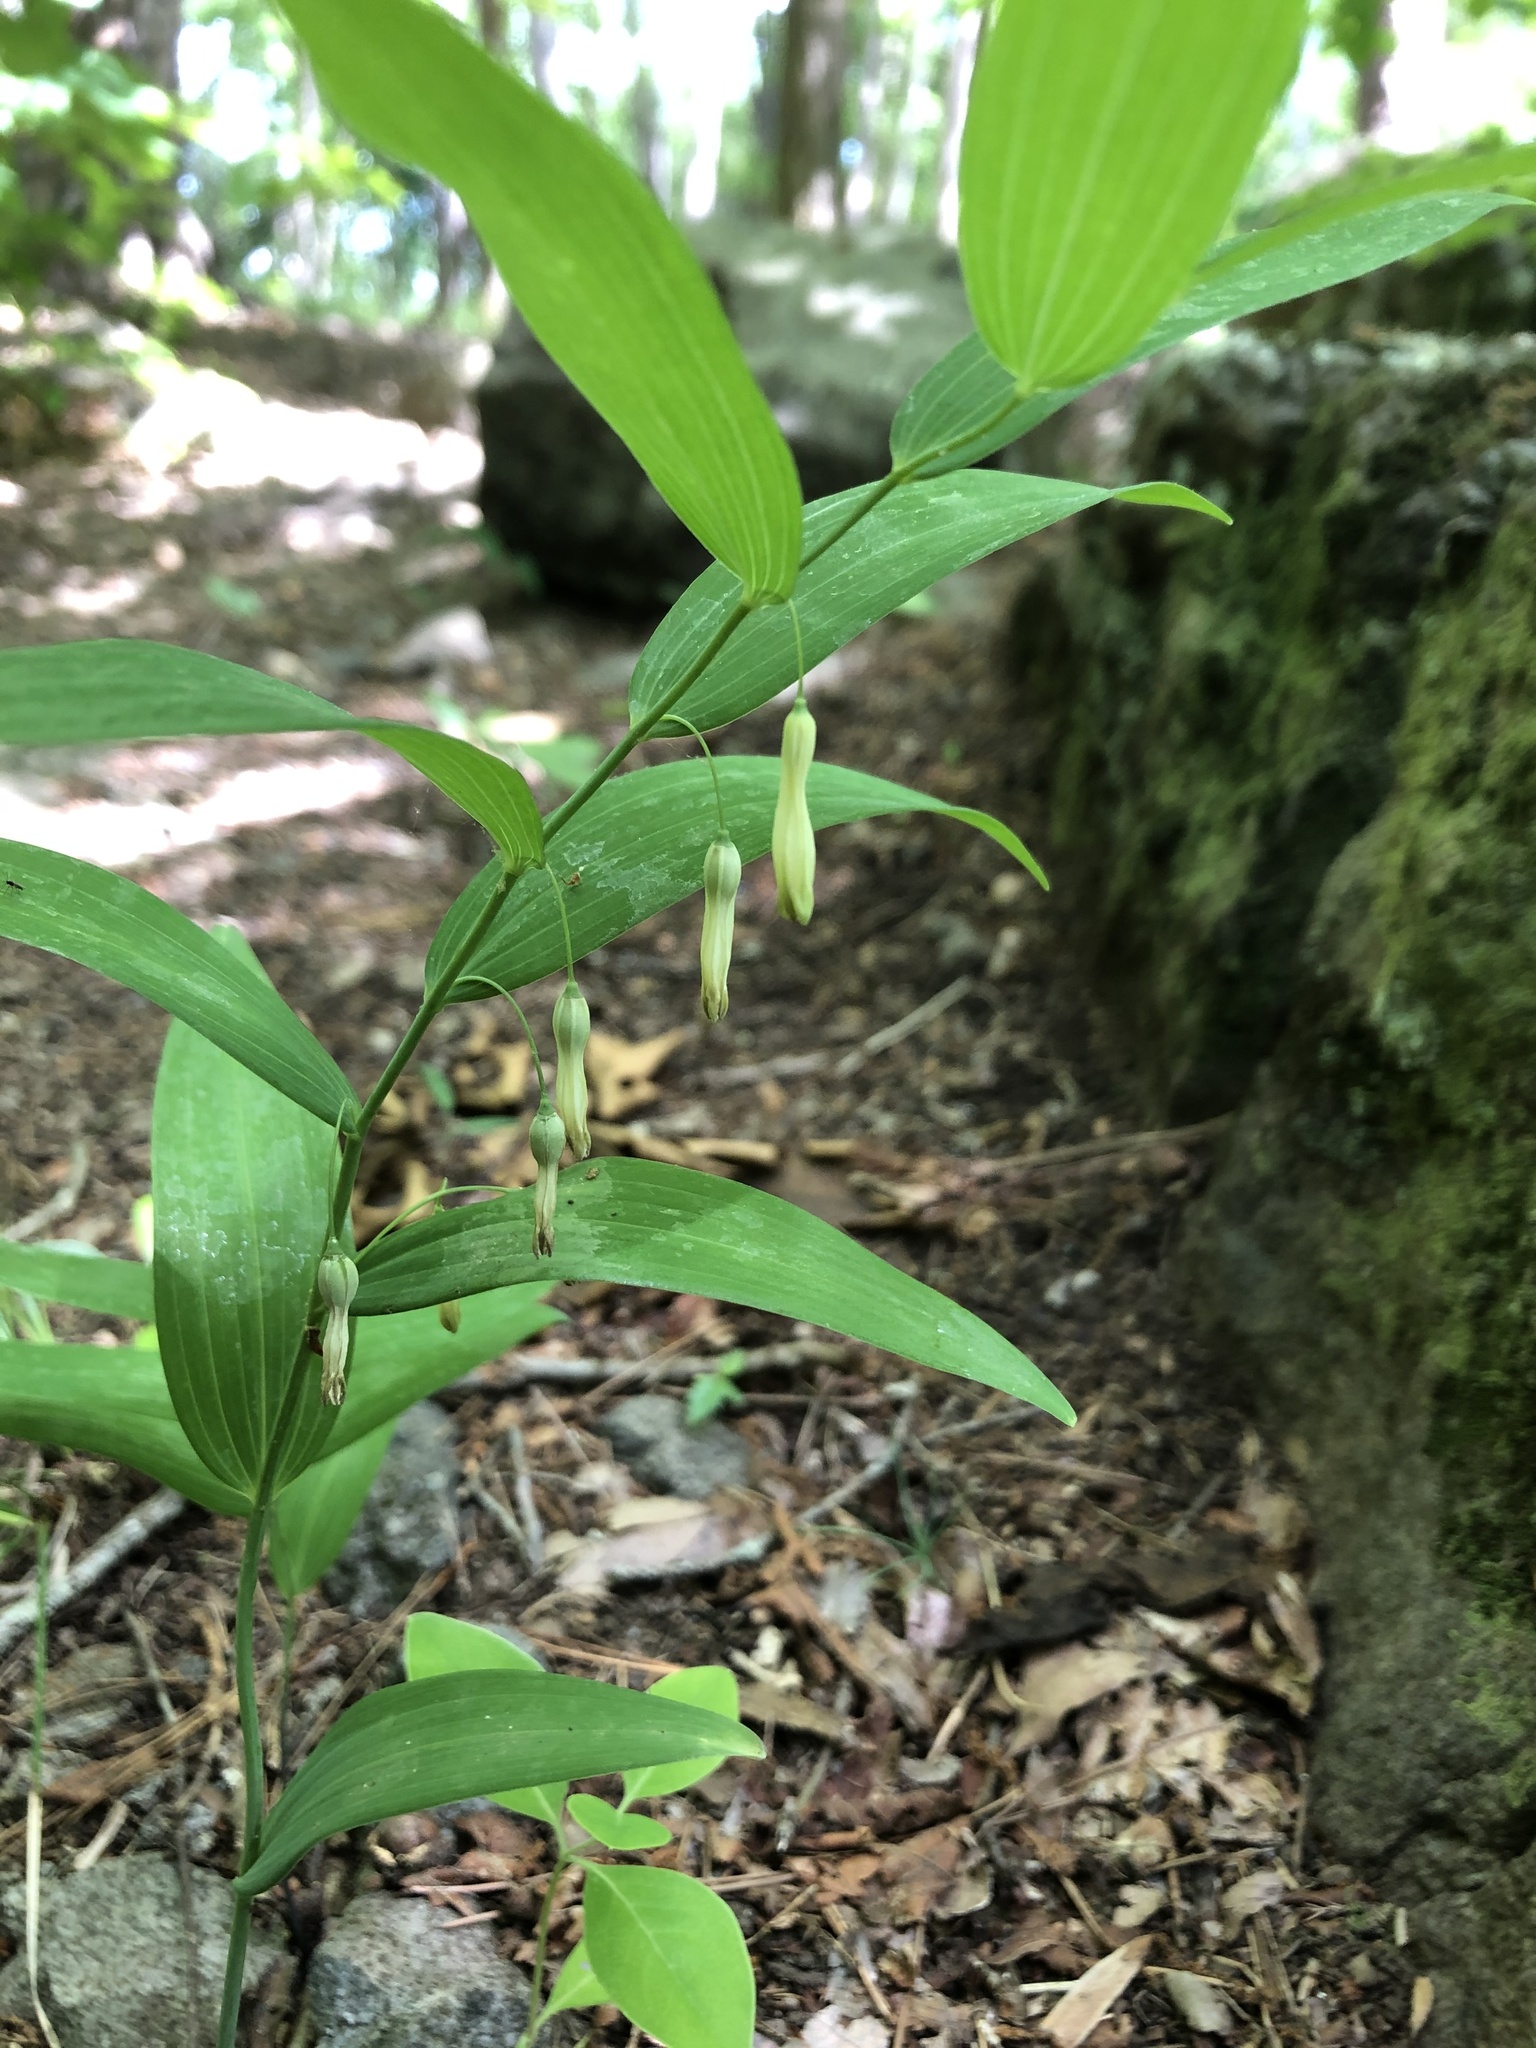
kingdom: Plantae
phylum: Tracheophyta
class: Liliopsida
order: Asparagales
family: Asparagaceae
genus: Polygonatum
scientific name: Polygonatum biflorum
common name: American solomon's-seal
